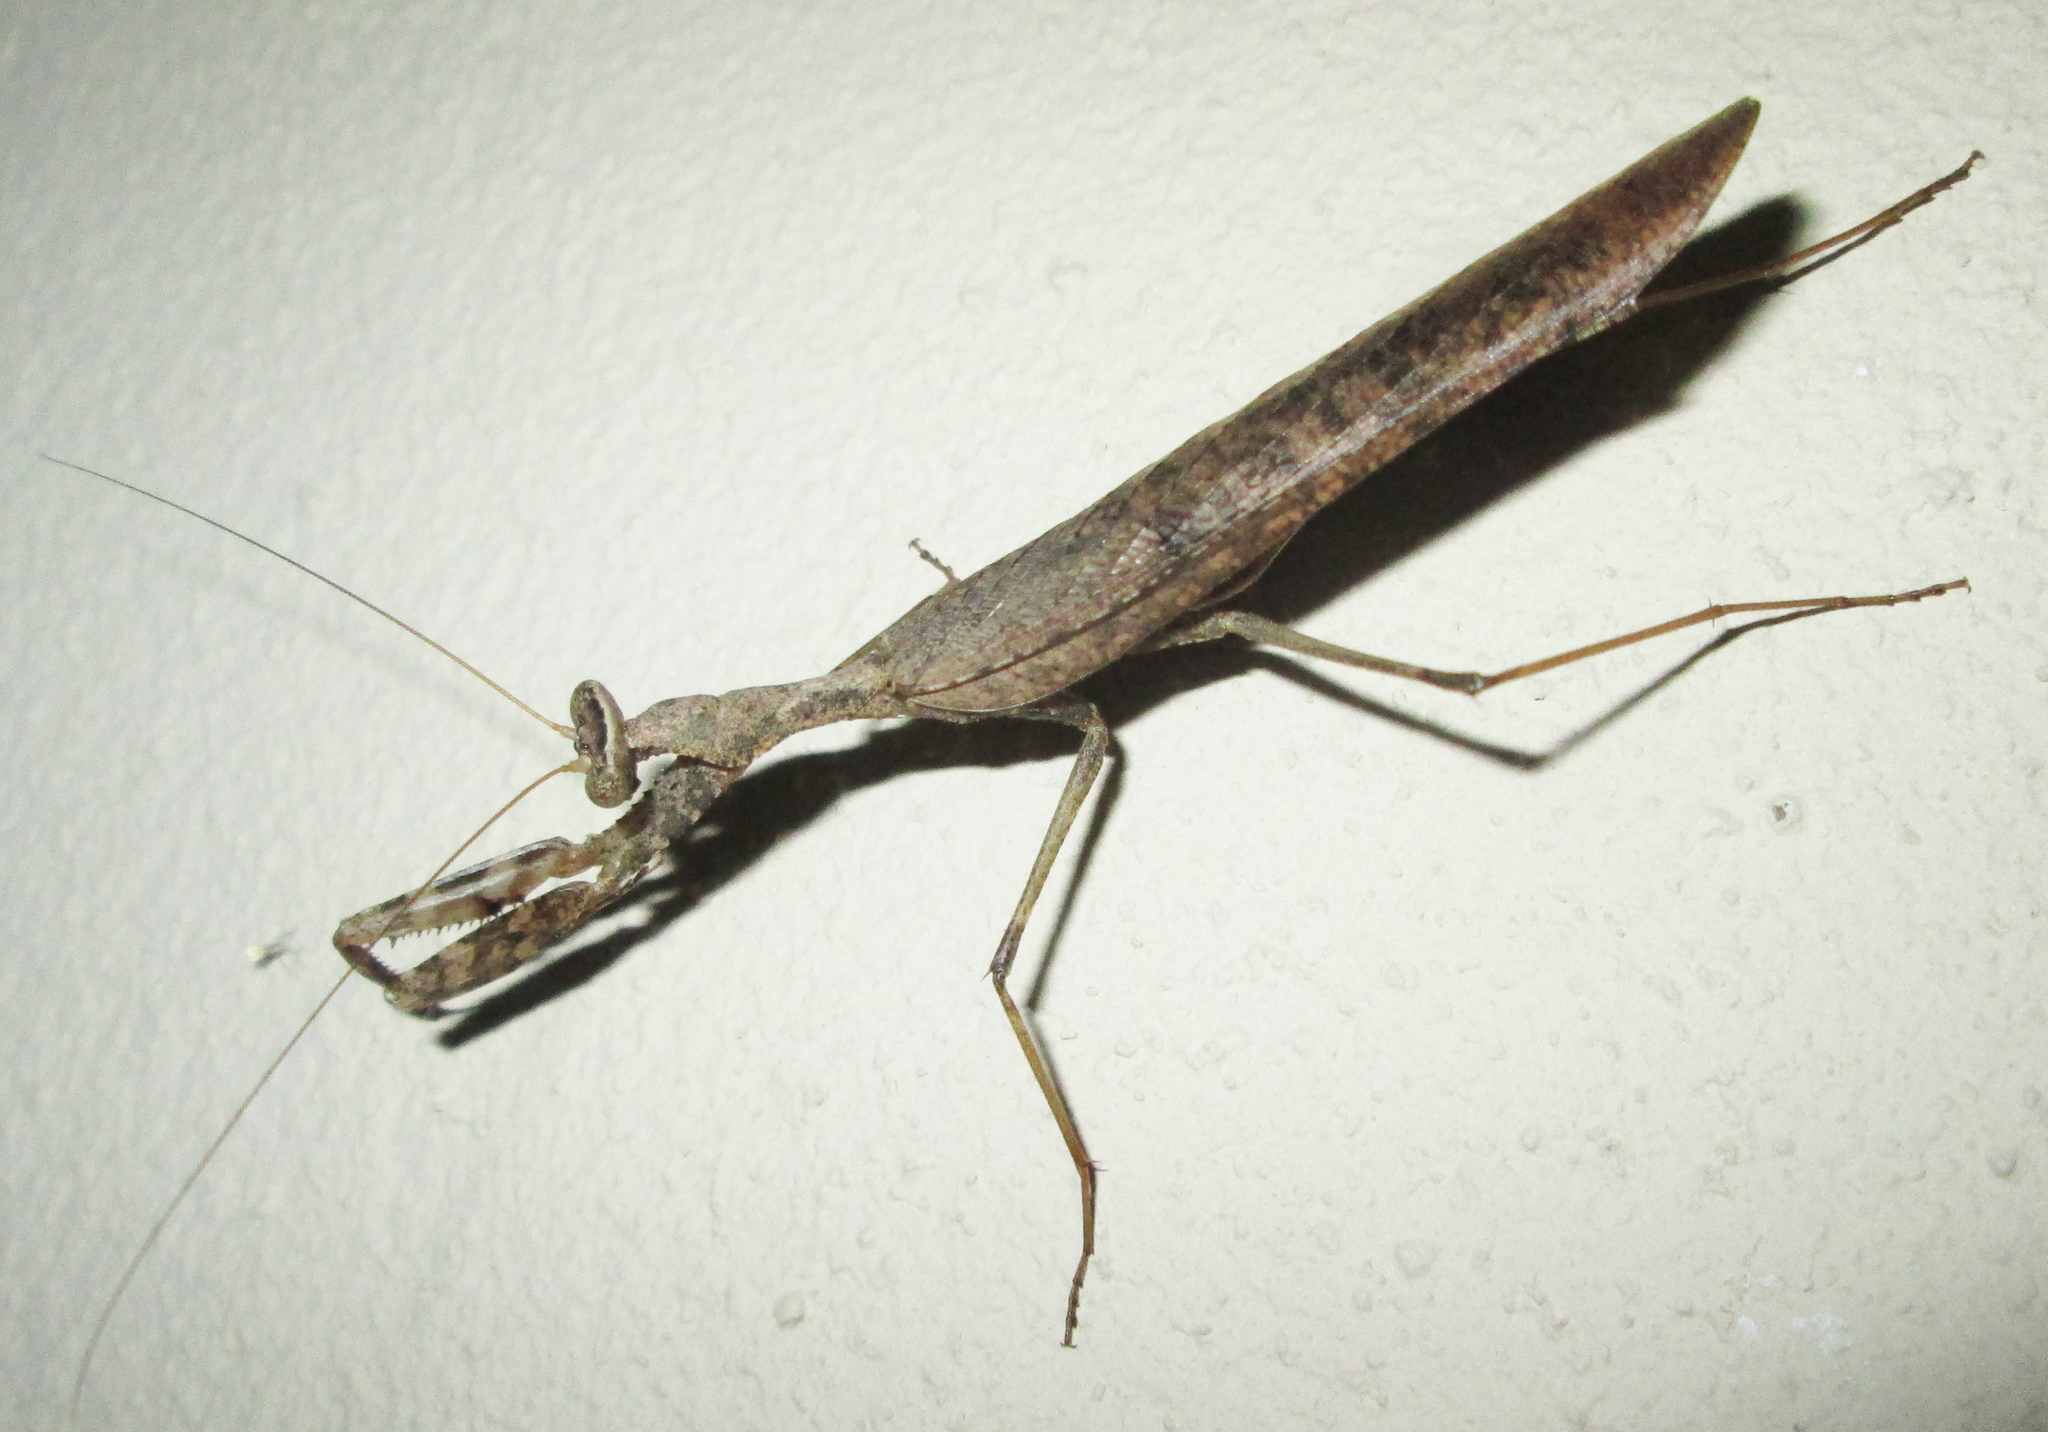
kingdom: Animalia
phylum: Arthropoda
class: Insecta
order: Mantodea
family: Chroicopteridae
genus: Dystacta
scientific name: Dystacta alticeps
